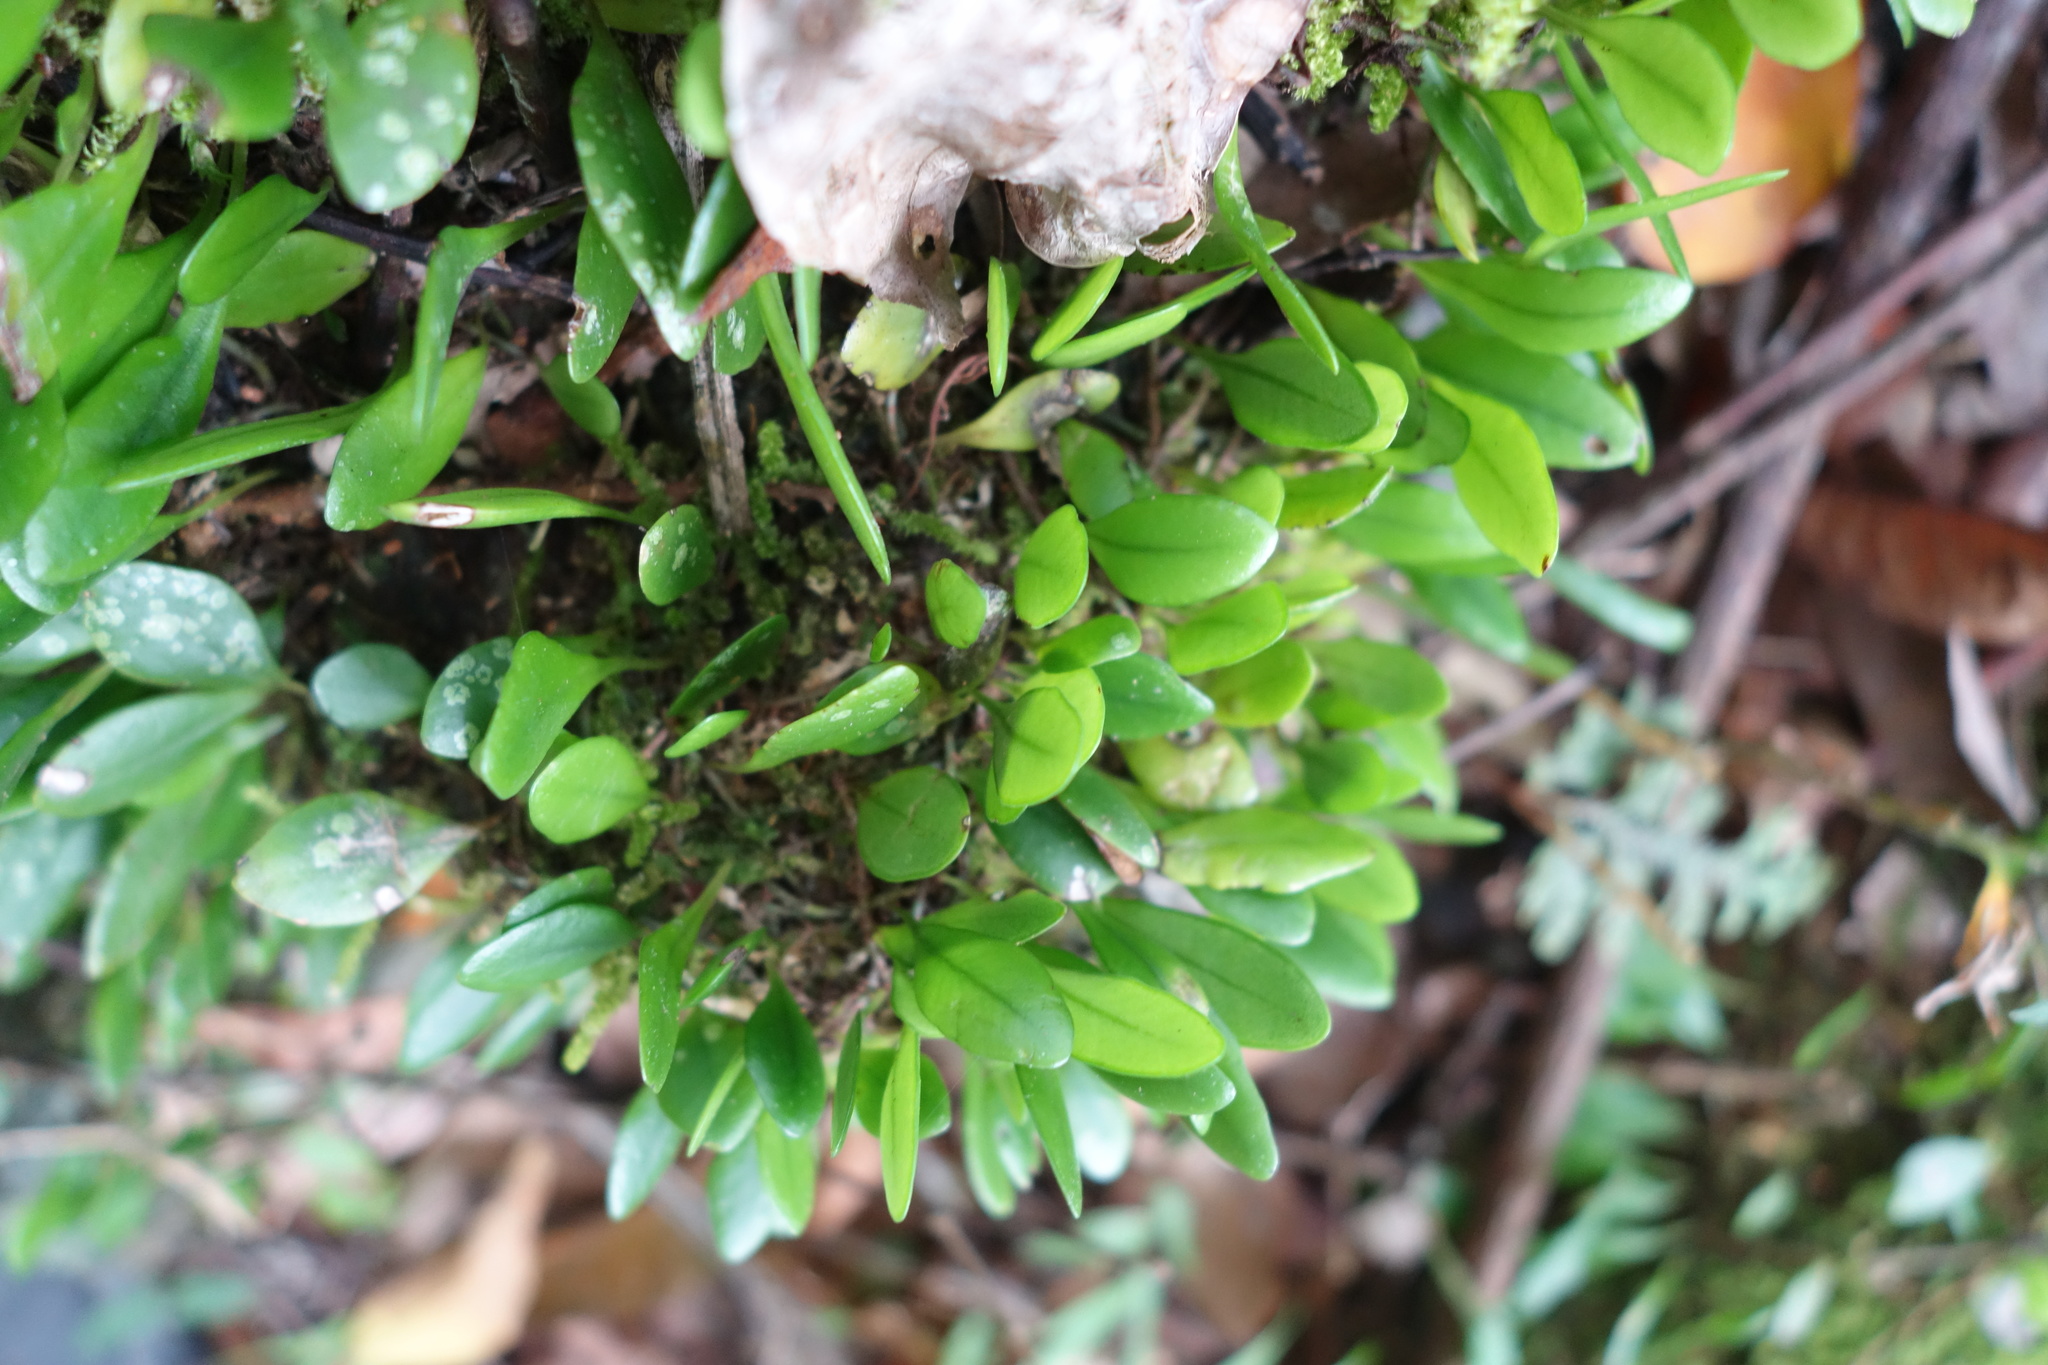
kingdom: Plantae
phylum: Tracheophyta
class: Polypodiopsida
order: Polypodiales
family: Polypodiaceae
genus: Lepisorus
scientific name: Lepisorus microphyllus
